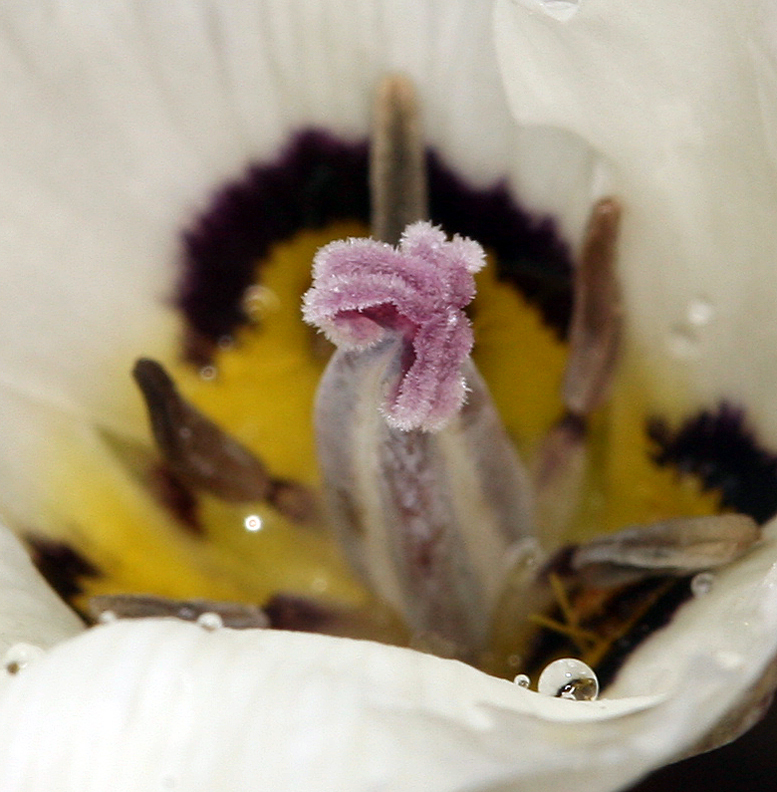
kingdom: Plantae
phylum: Tracheophyta
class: Liliopsida
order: Liliales
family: Liliaceae
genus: Calochortus
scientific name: Calochortus bruneaunis
